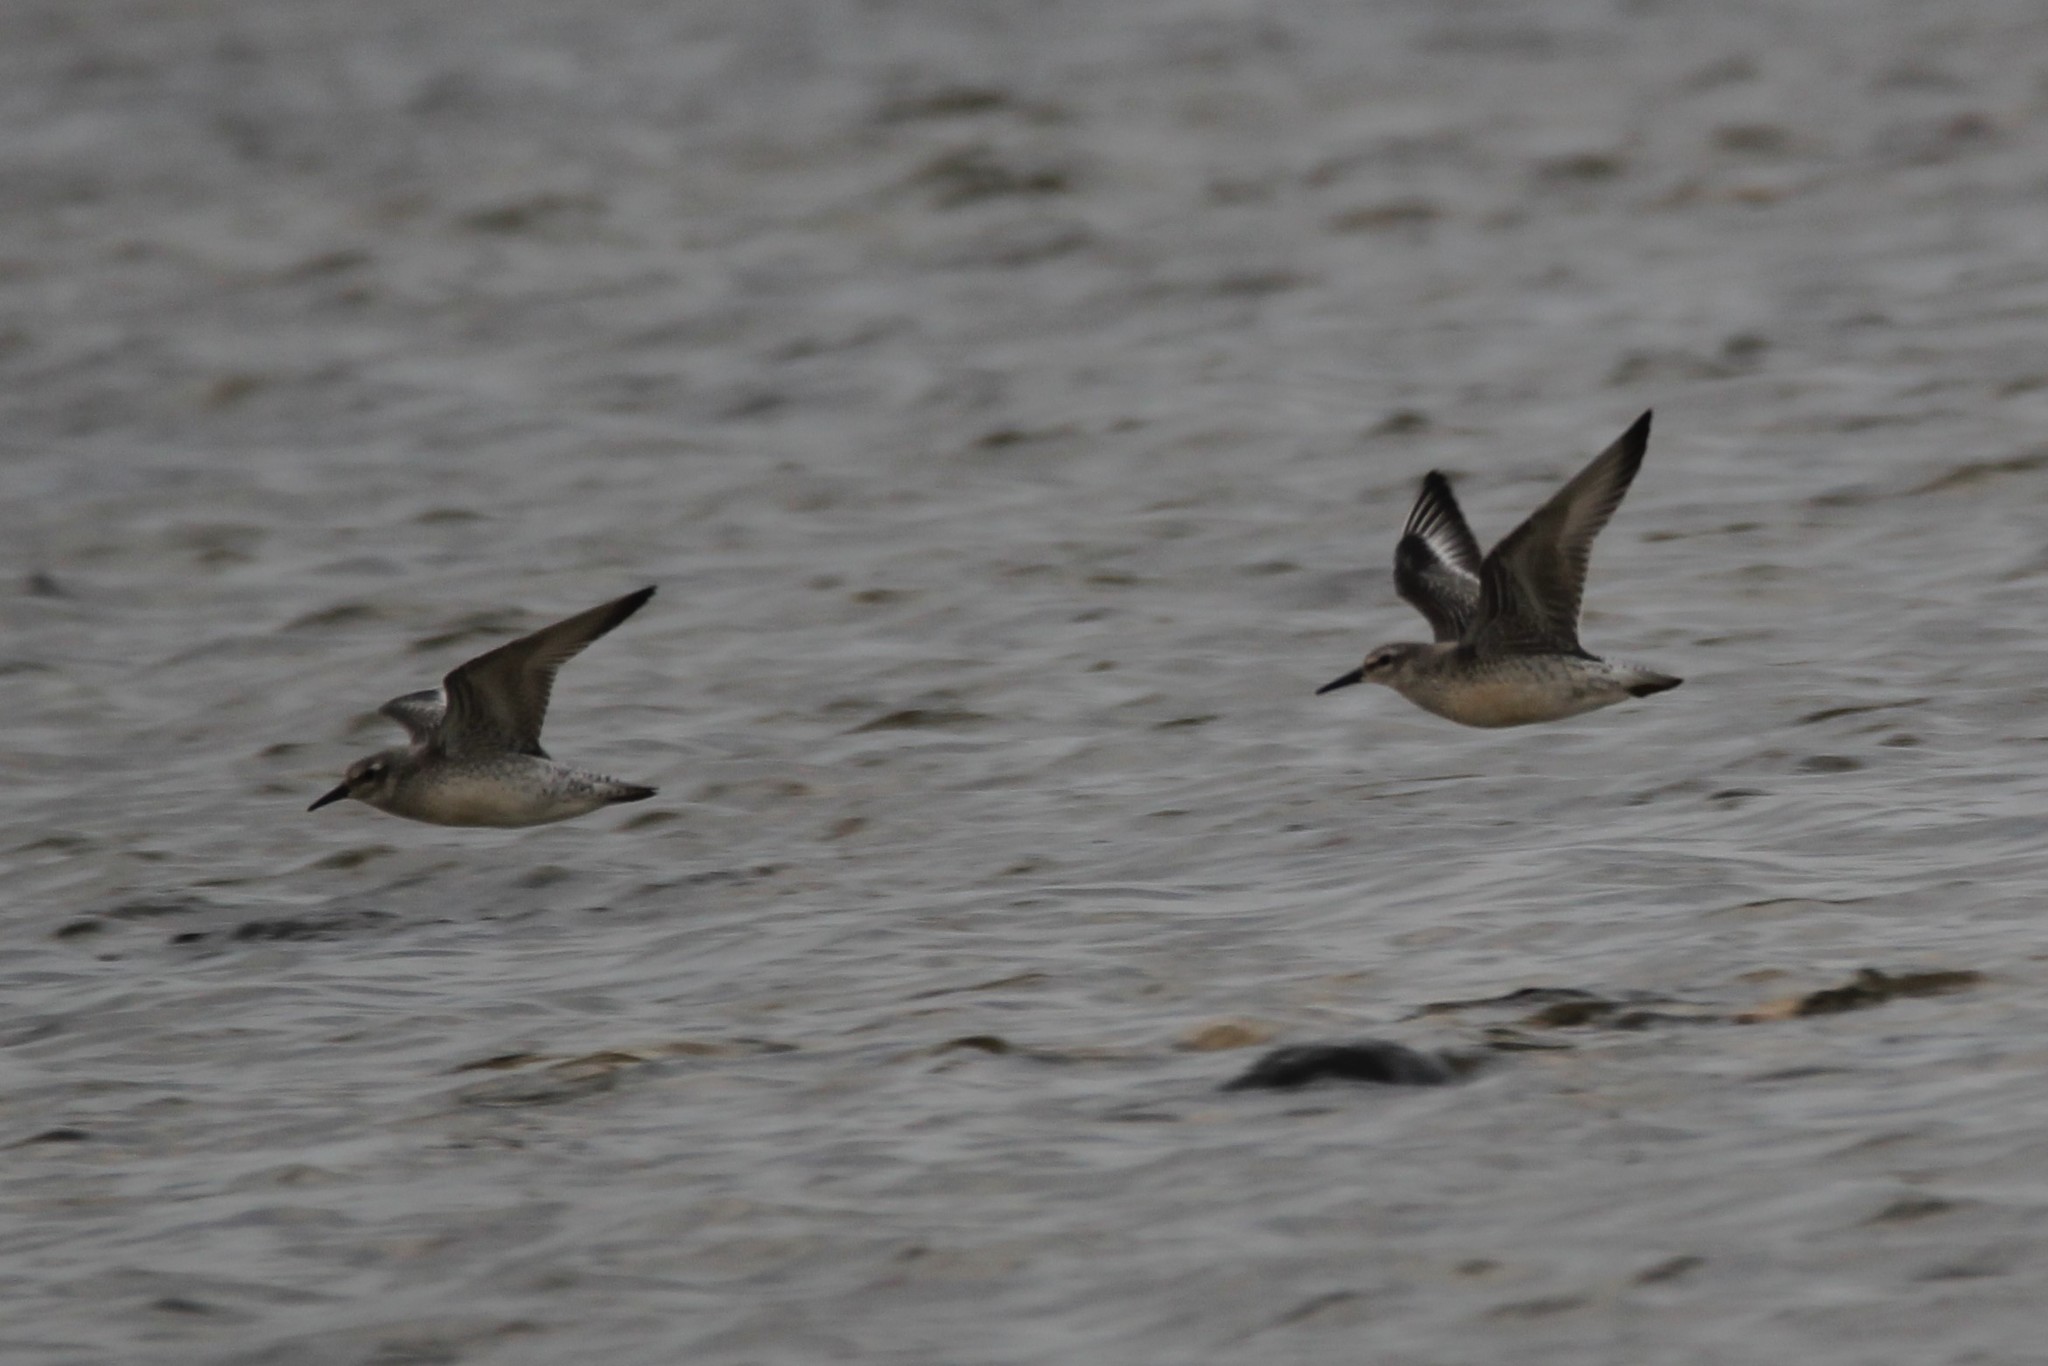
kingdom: Animalia
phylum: Chordata
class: Aves
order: Charadriiformes
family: Scolopacidae
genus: Calidris
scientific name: Calidris canutus
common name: Red knot
